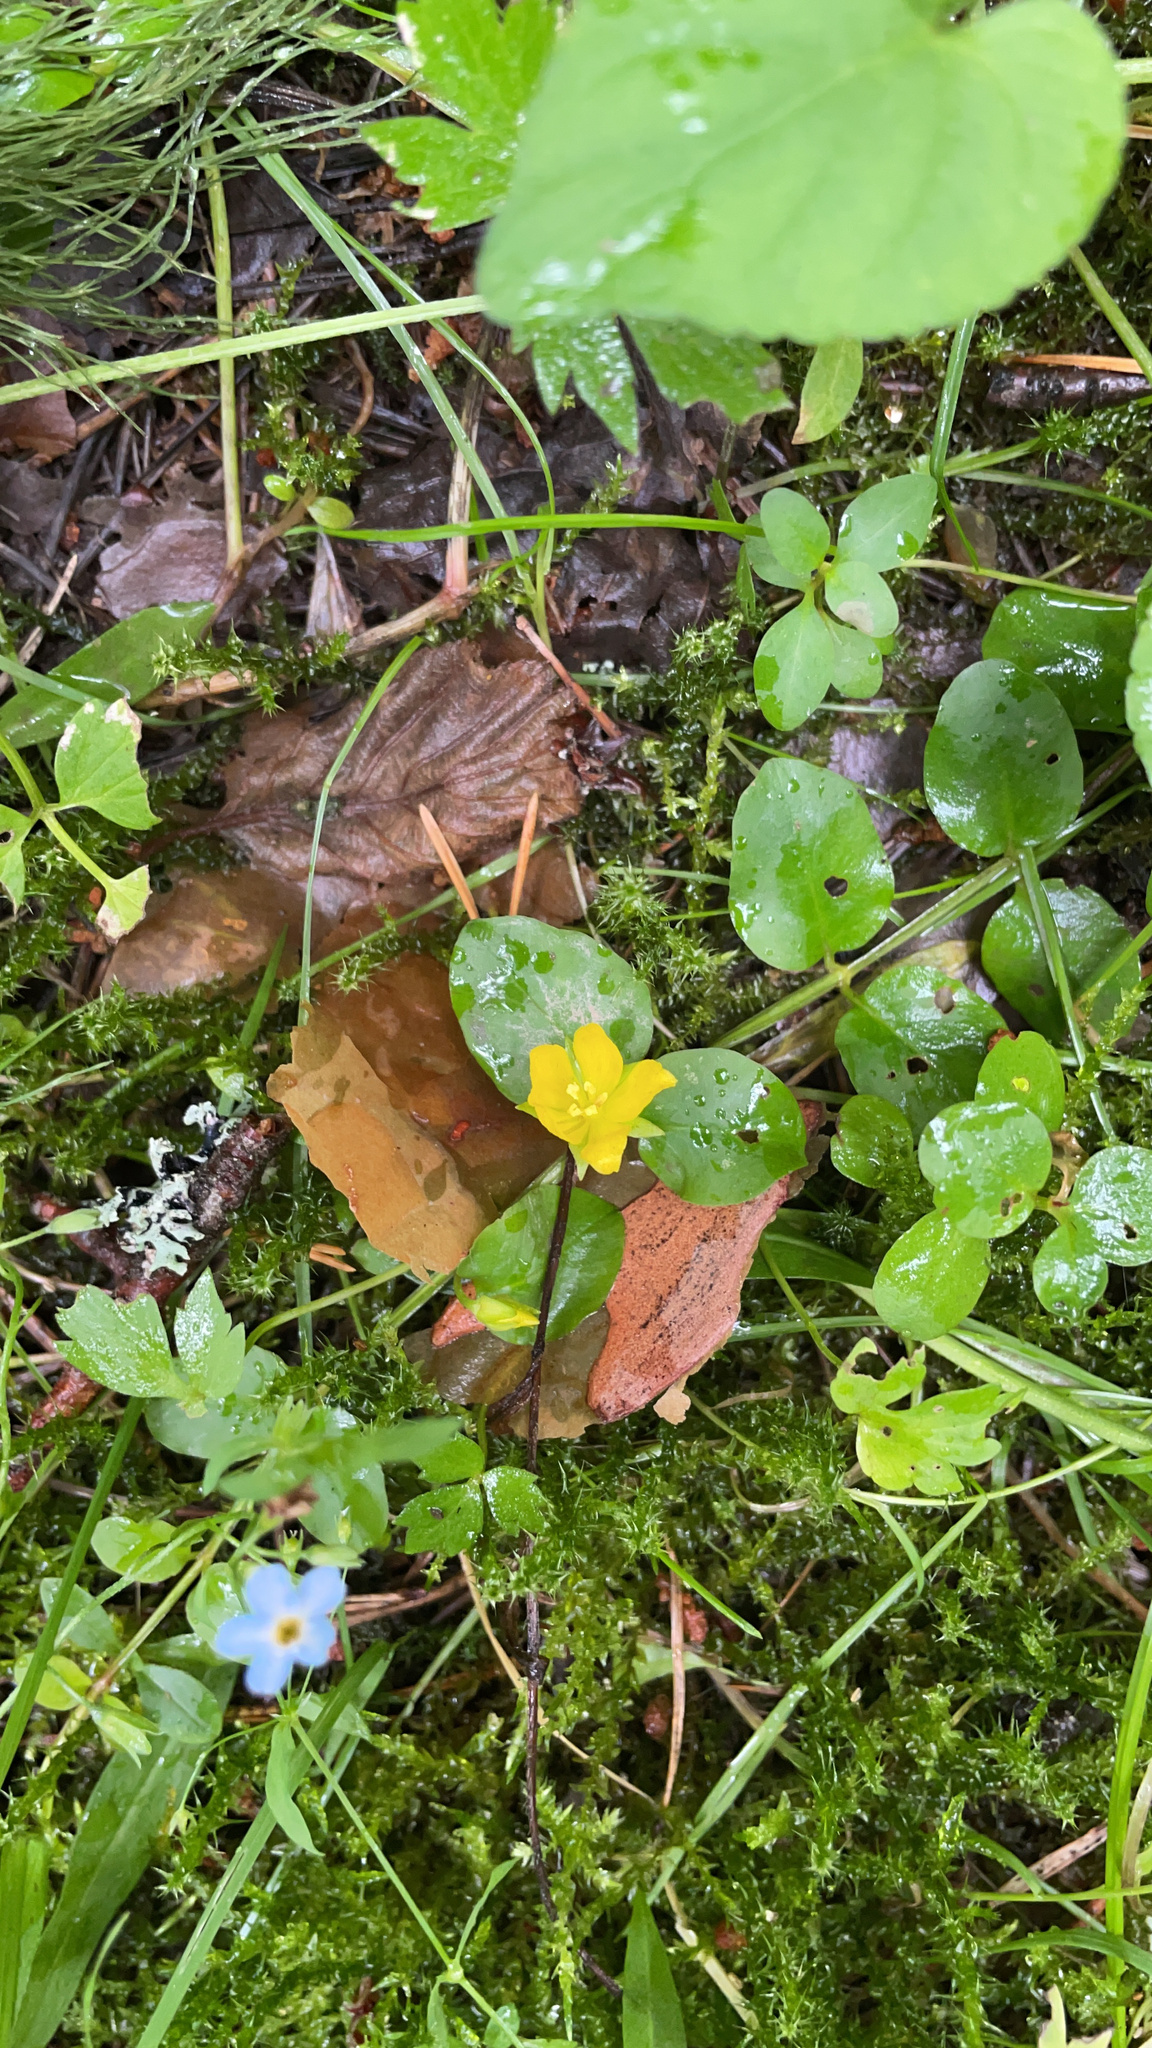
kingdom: Plantae
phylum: Tracheophyta
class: Magnoliopsida
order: Ericales
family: Primulaceae
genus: Lysimachia
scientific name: Lysimachia nummularia
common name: Moneywort
